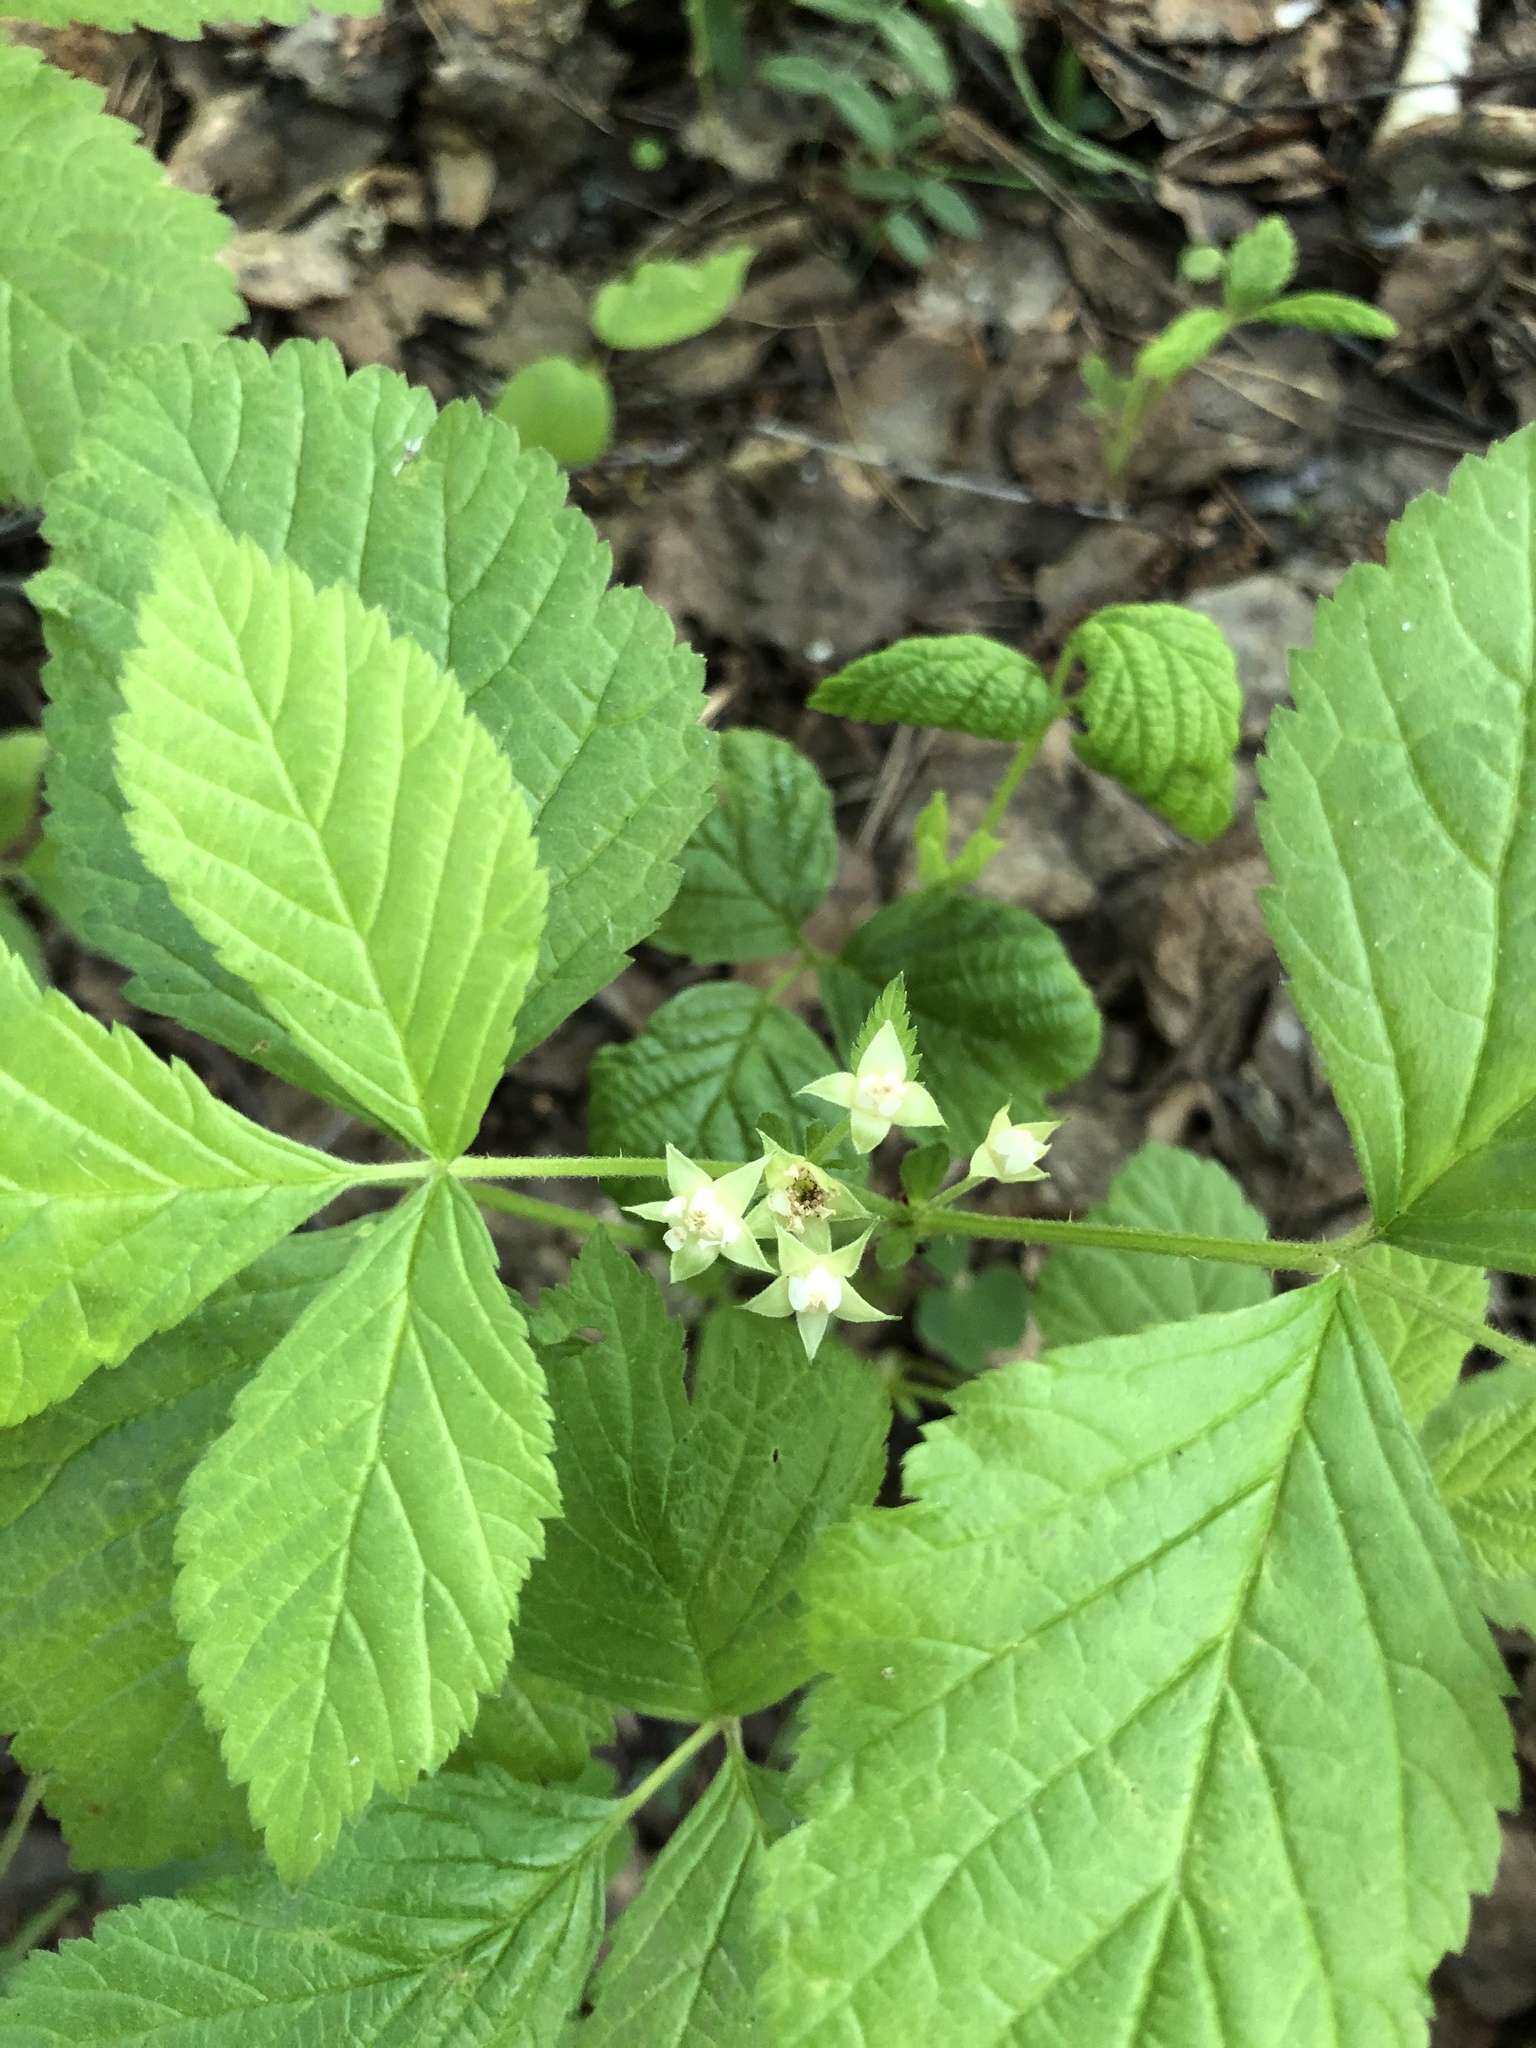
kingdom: Plantae
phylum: Tracheophyta
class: Magnoliopsida
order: Rosales
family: Rosaceae
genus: Rubus
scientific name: Rubus saxatilis
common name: Stone bramble
